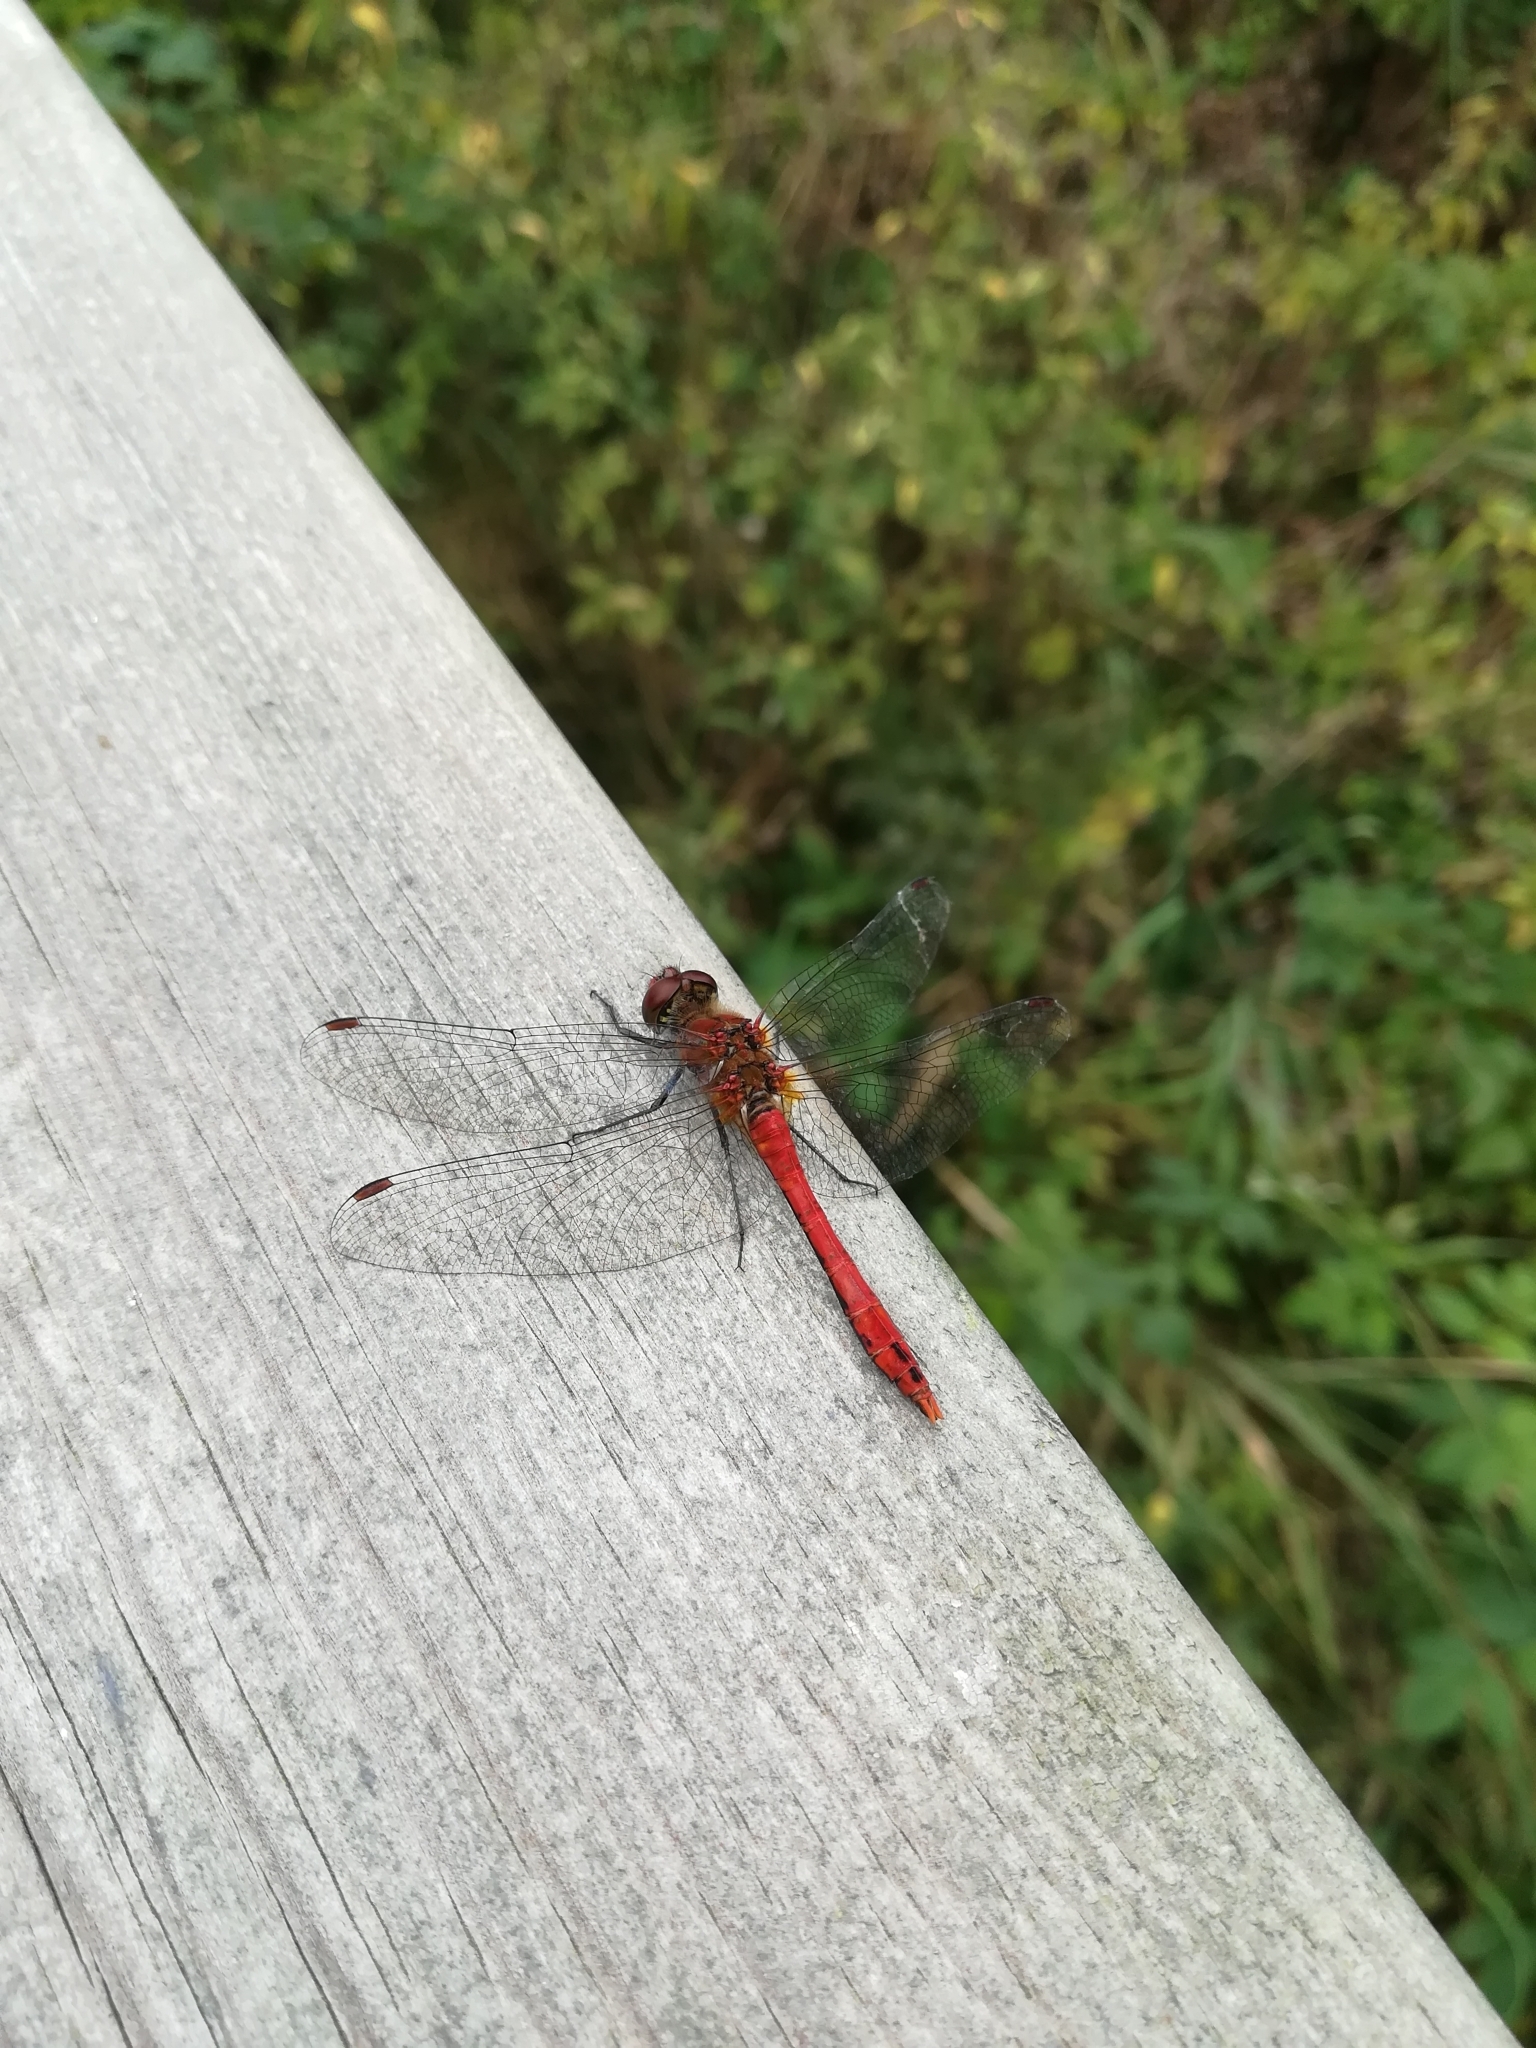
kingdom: Animalia
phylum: Arthropoda
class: Insecta
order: Odonata
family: Libellulidae
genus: Sympetrum
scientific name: Sympetrum sanguineum
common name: Ruddy darter
